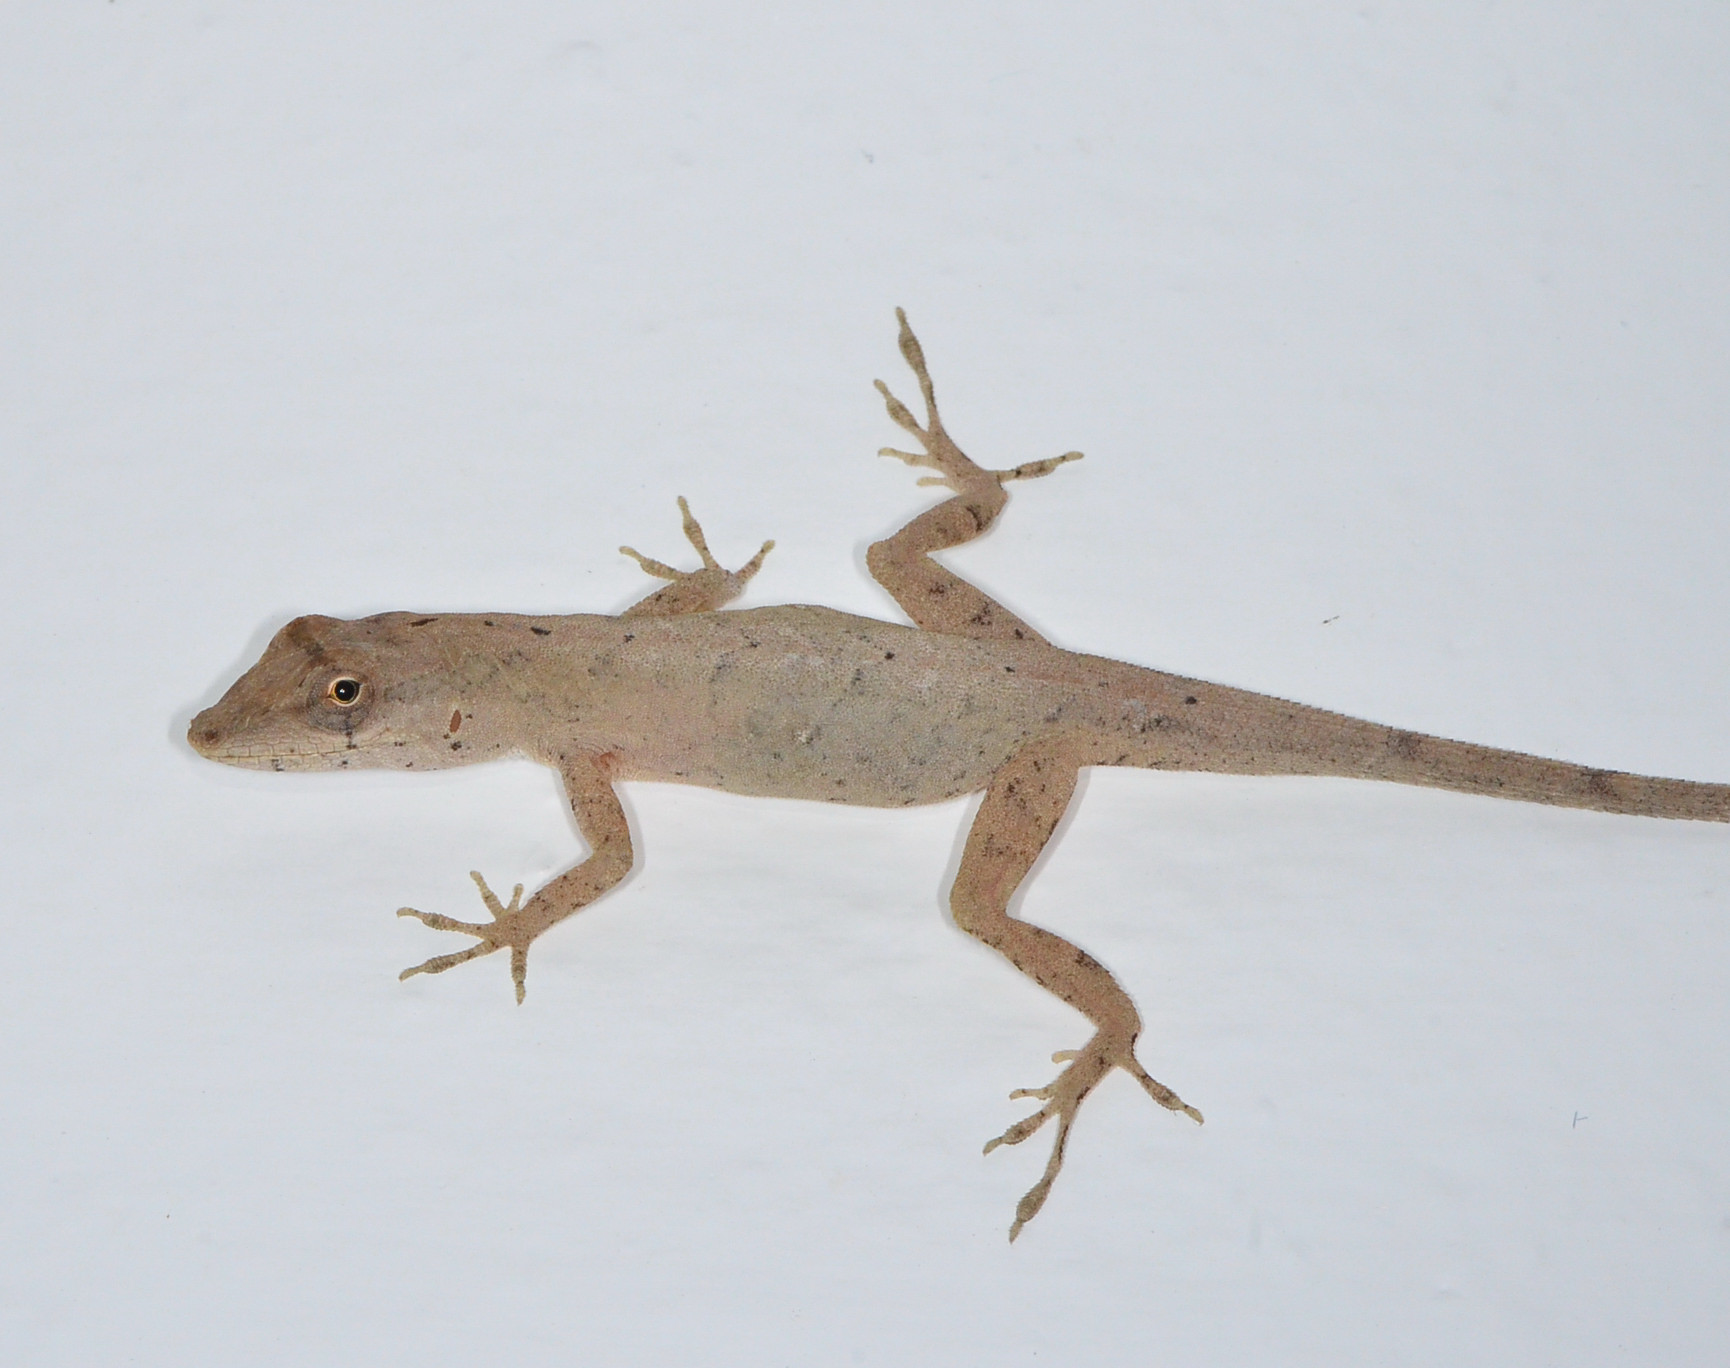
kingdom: Animalia
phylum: Chordata
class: Squamata
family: Dactyloidae
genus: Anolis
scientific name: Anolis nebulosus
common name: Clouded anole
